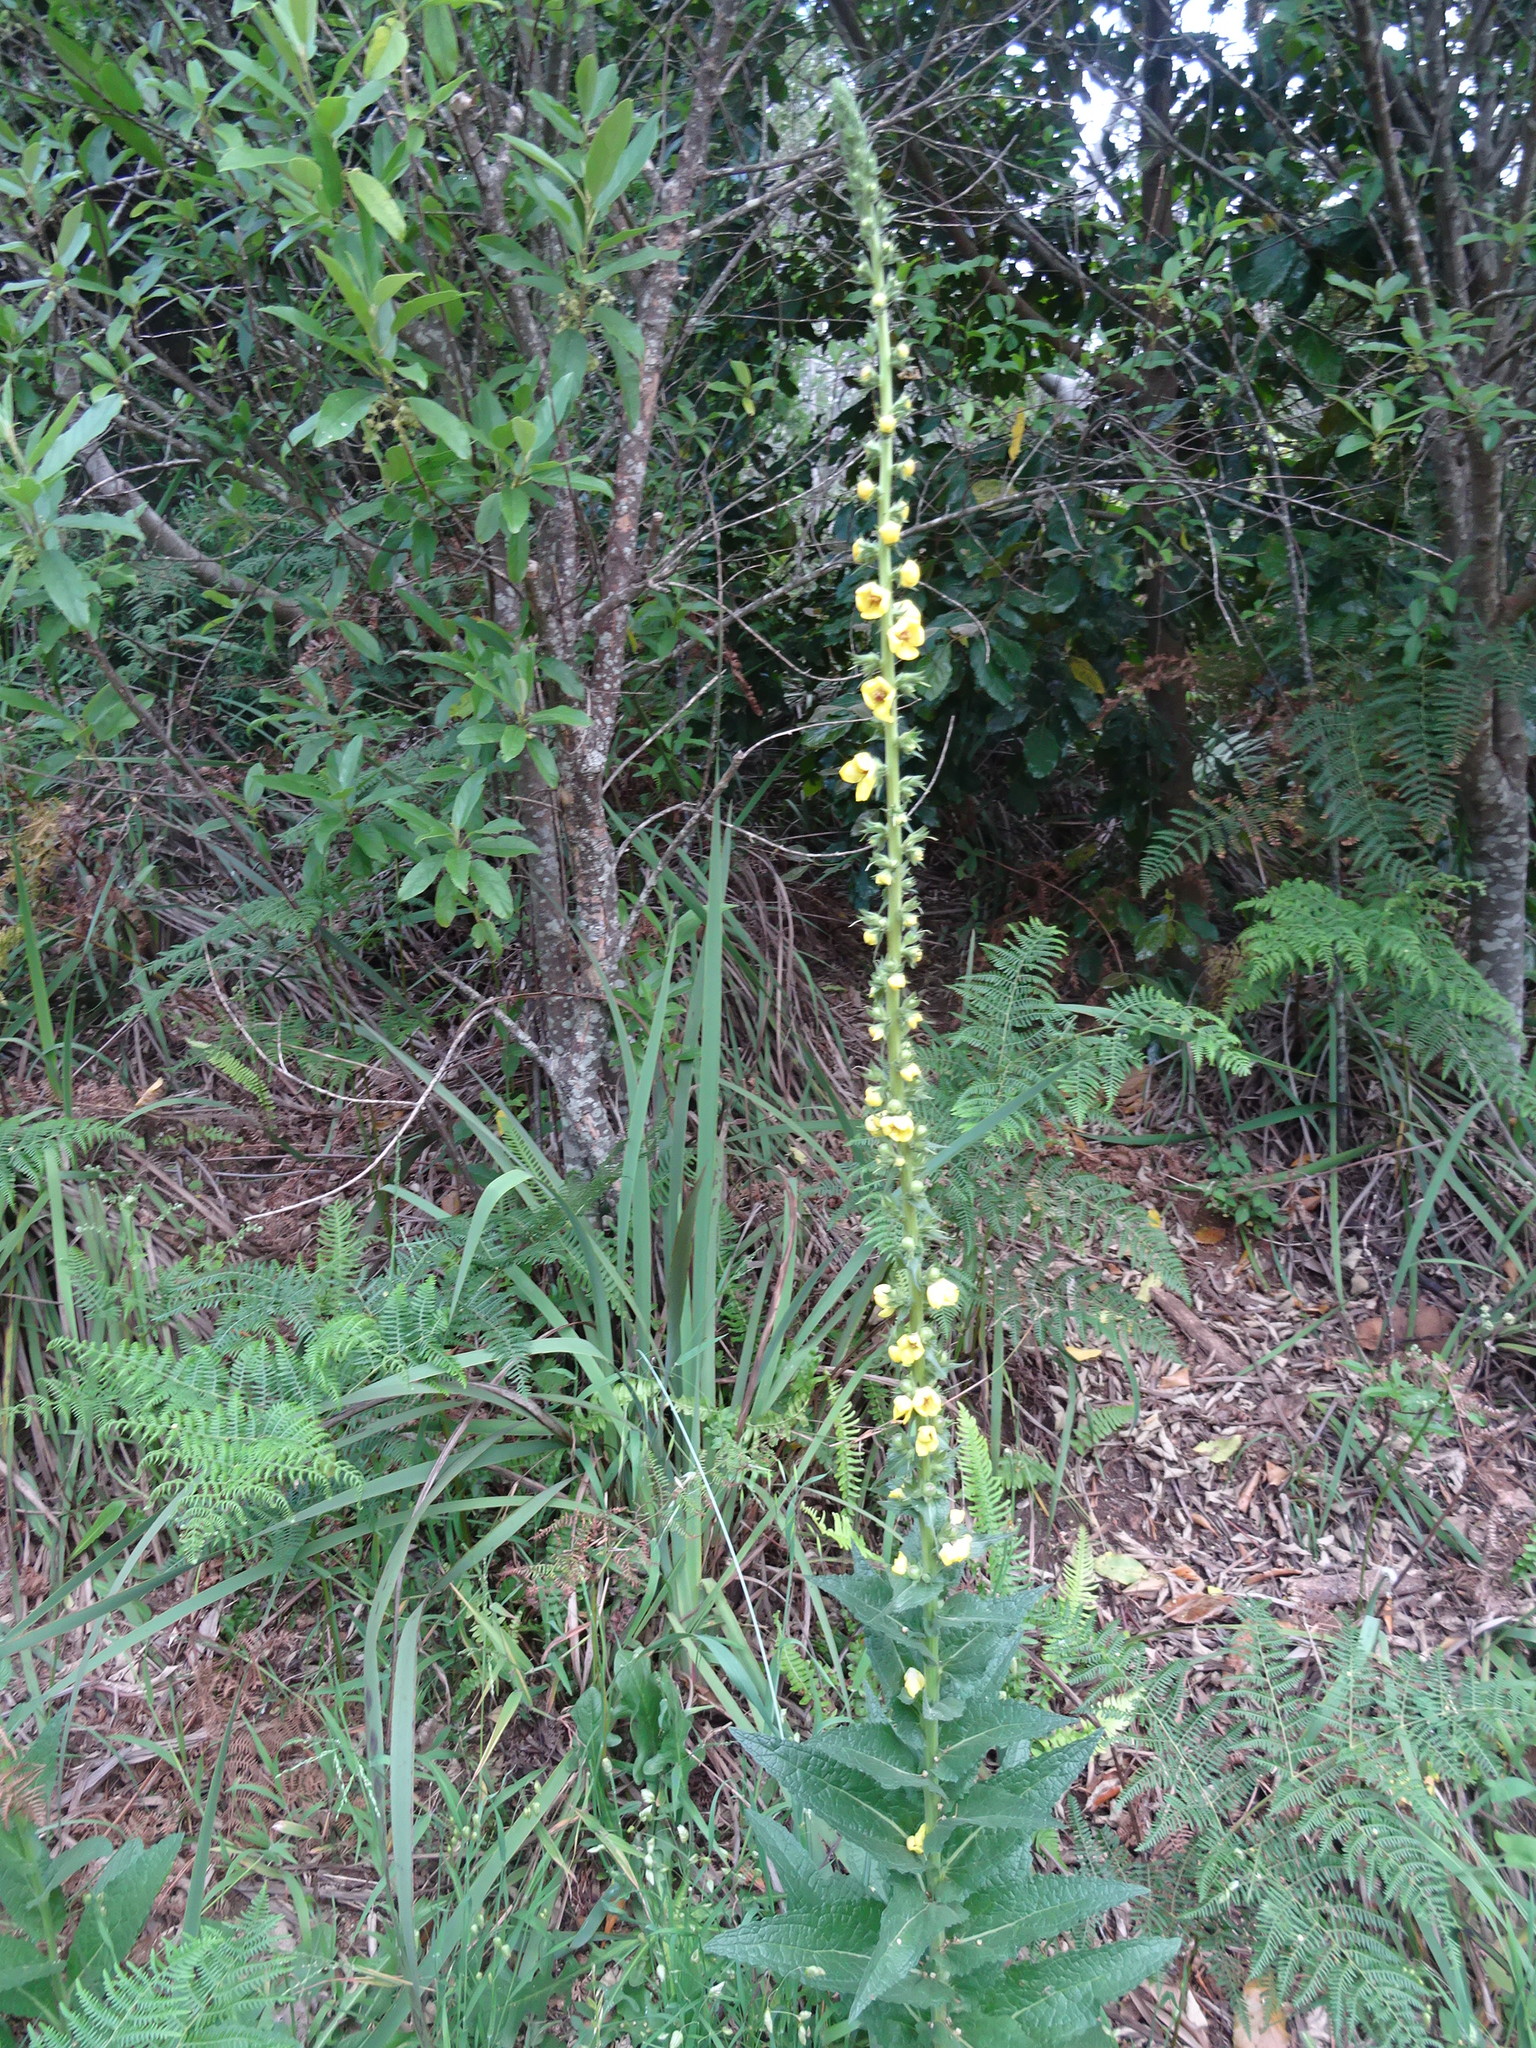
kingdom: Plantae
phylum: Tracheophyta
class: Magnoliopsida
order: Lamiales
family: Scrophulariaceae
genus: Verbascum
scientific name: Verbascum virgatum
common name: Twiggy mullein
